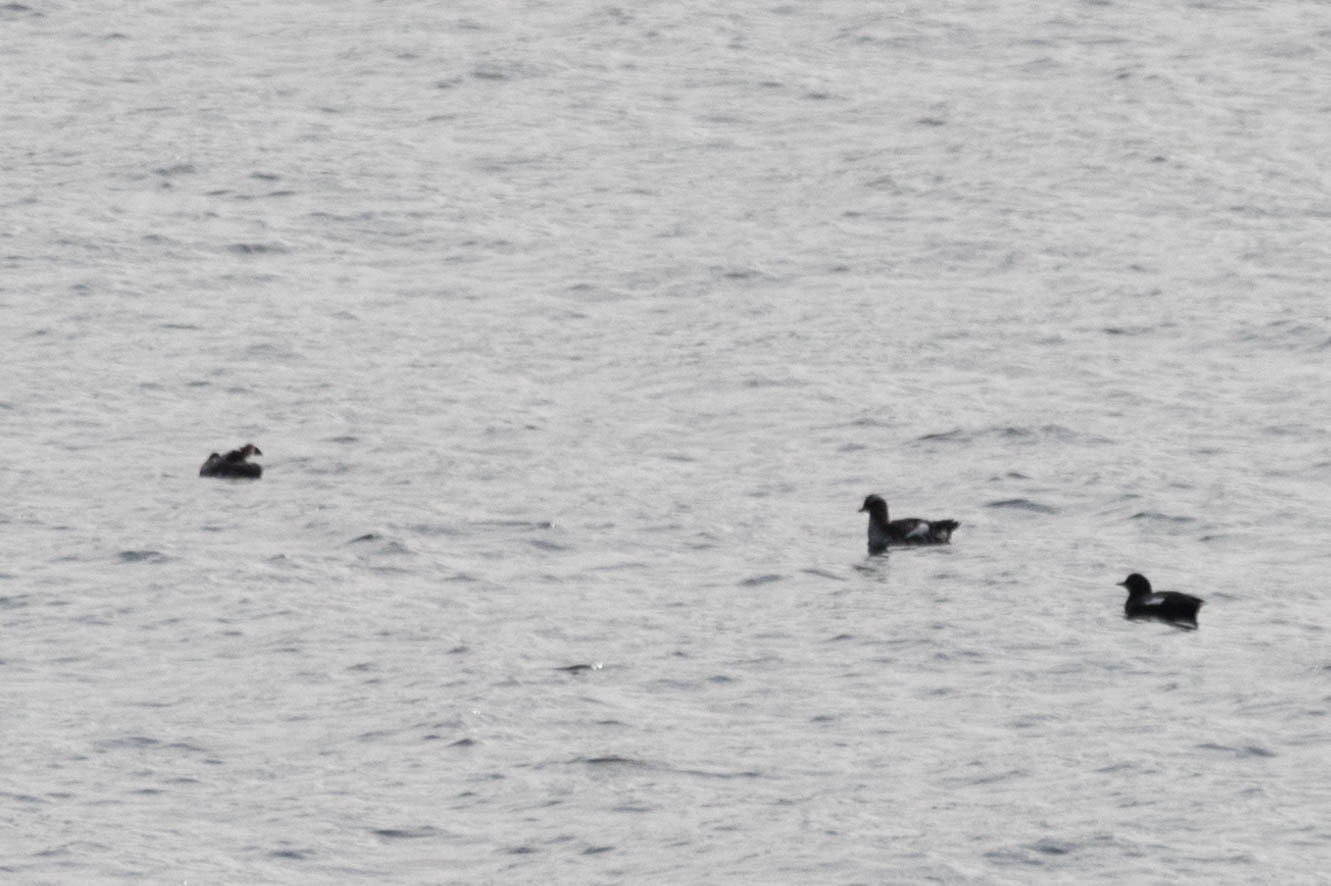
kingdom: Animalia
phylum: Chordata
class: Aves
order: Charadriiformes
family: Alcidae
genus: Cepphus
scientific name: Cepphus columba
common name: Pigeon guillemot
